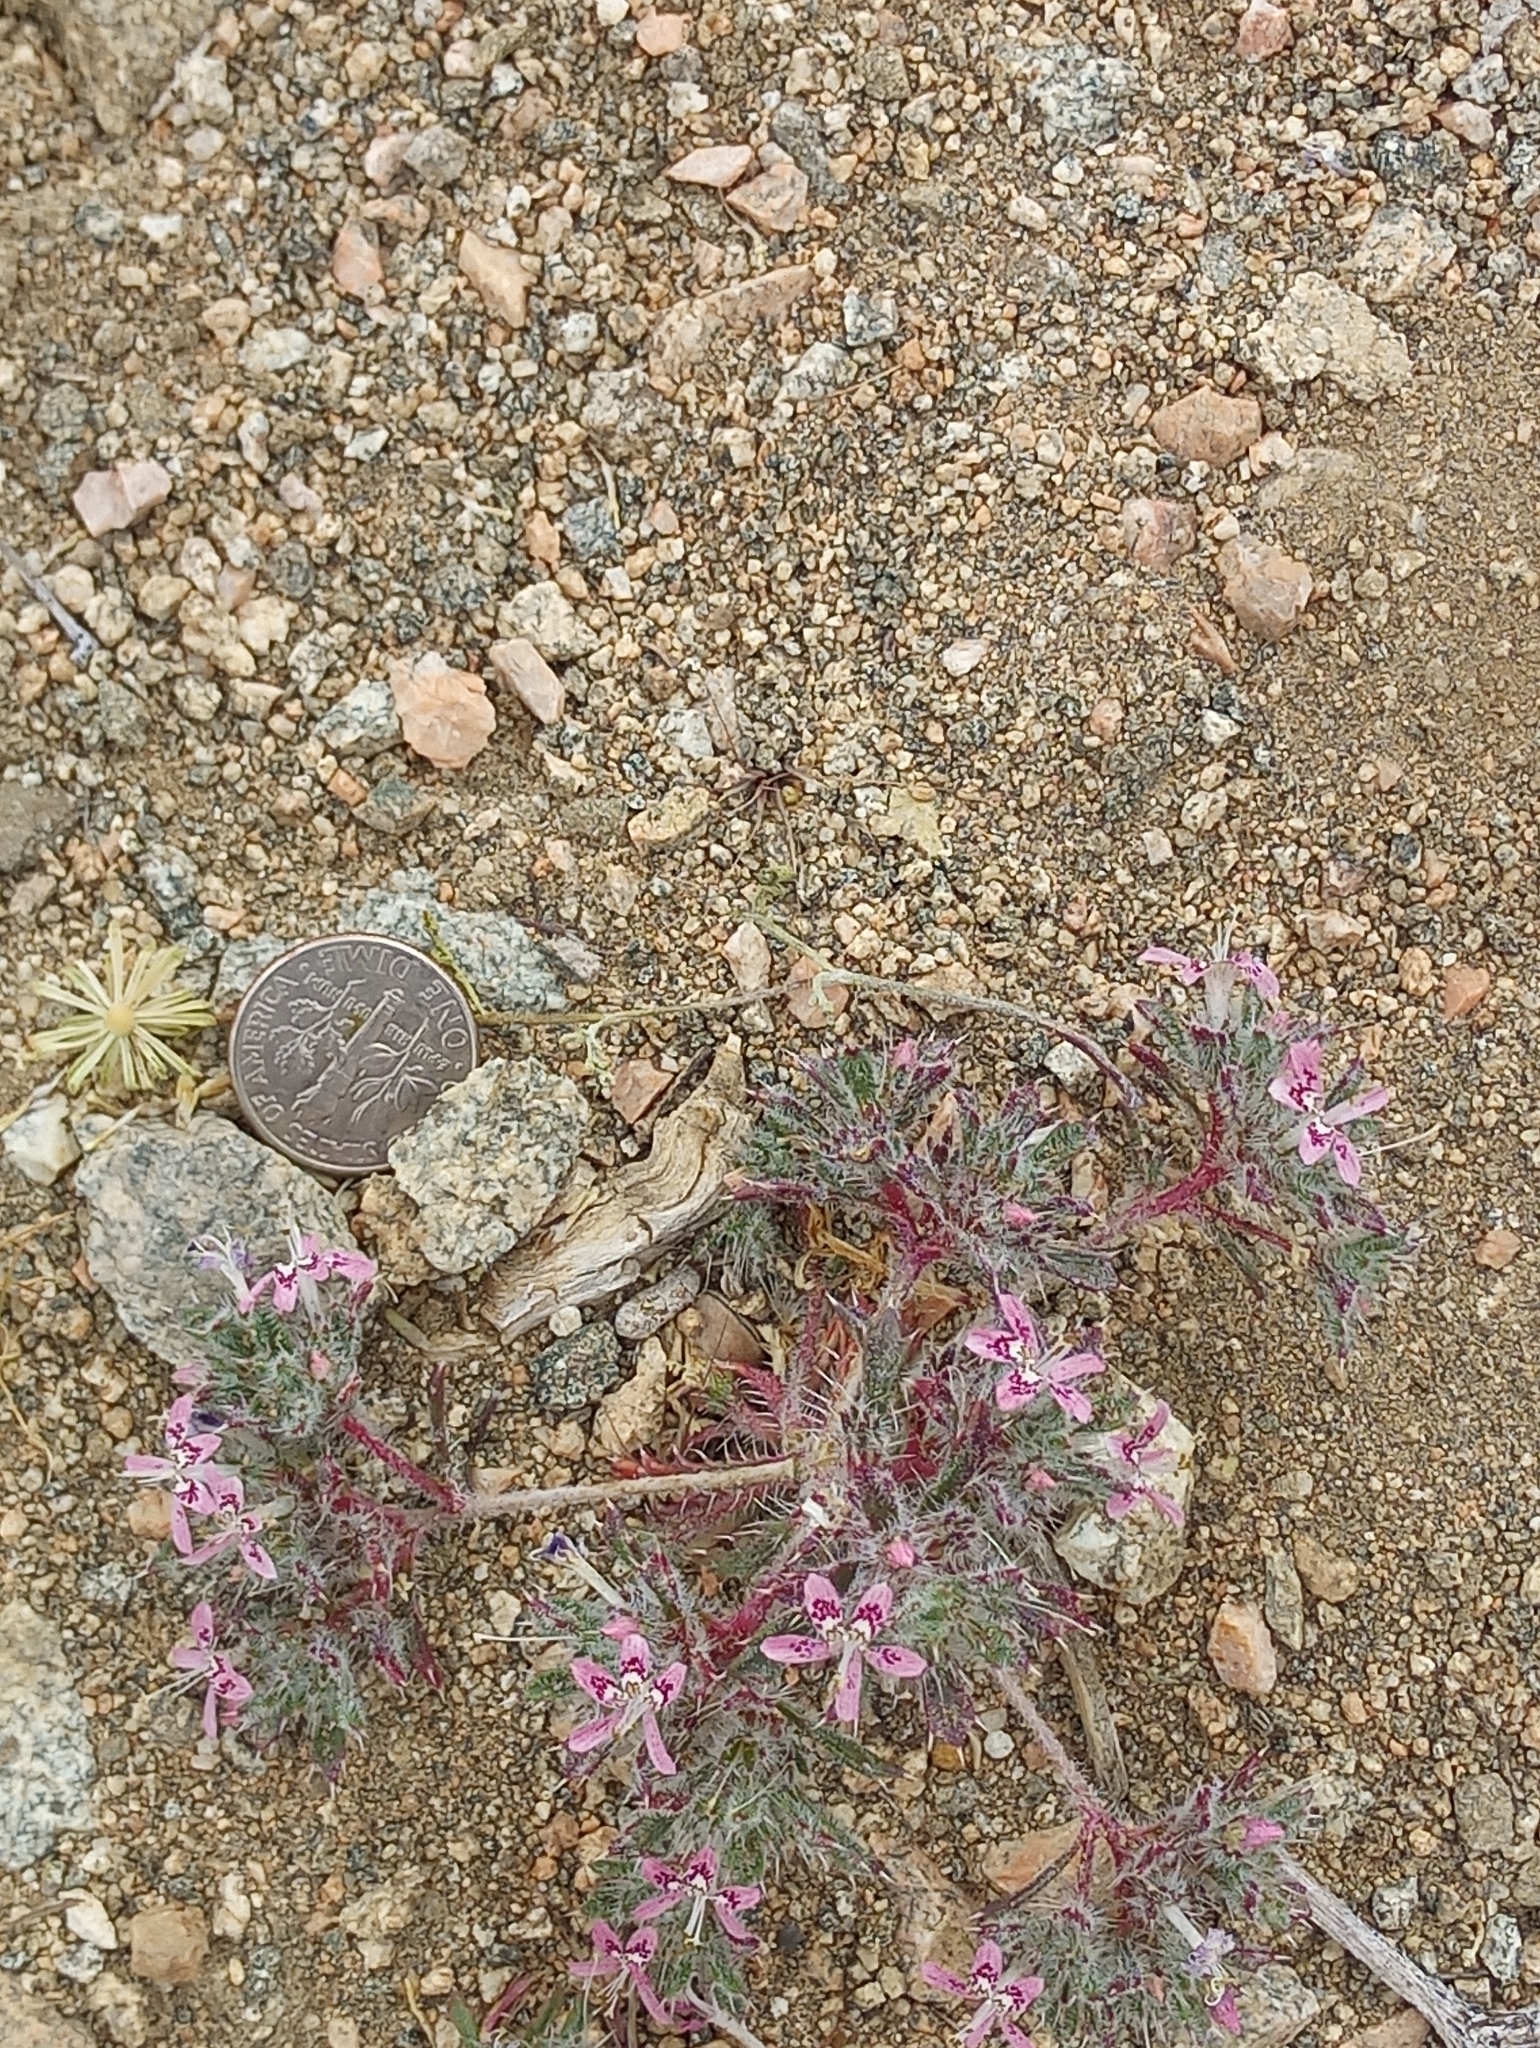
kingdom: Plantae
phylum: Tracheophyta
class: Magnoliopsida
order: Ericales
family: Polemoniaceae
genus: Loeseliastrum
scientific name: Loeseliastrum matthewsii
